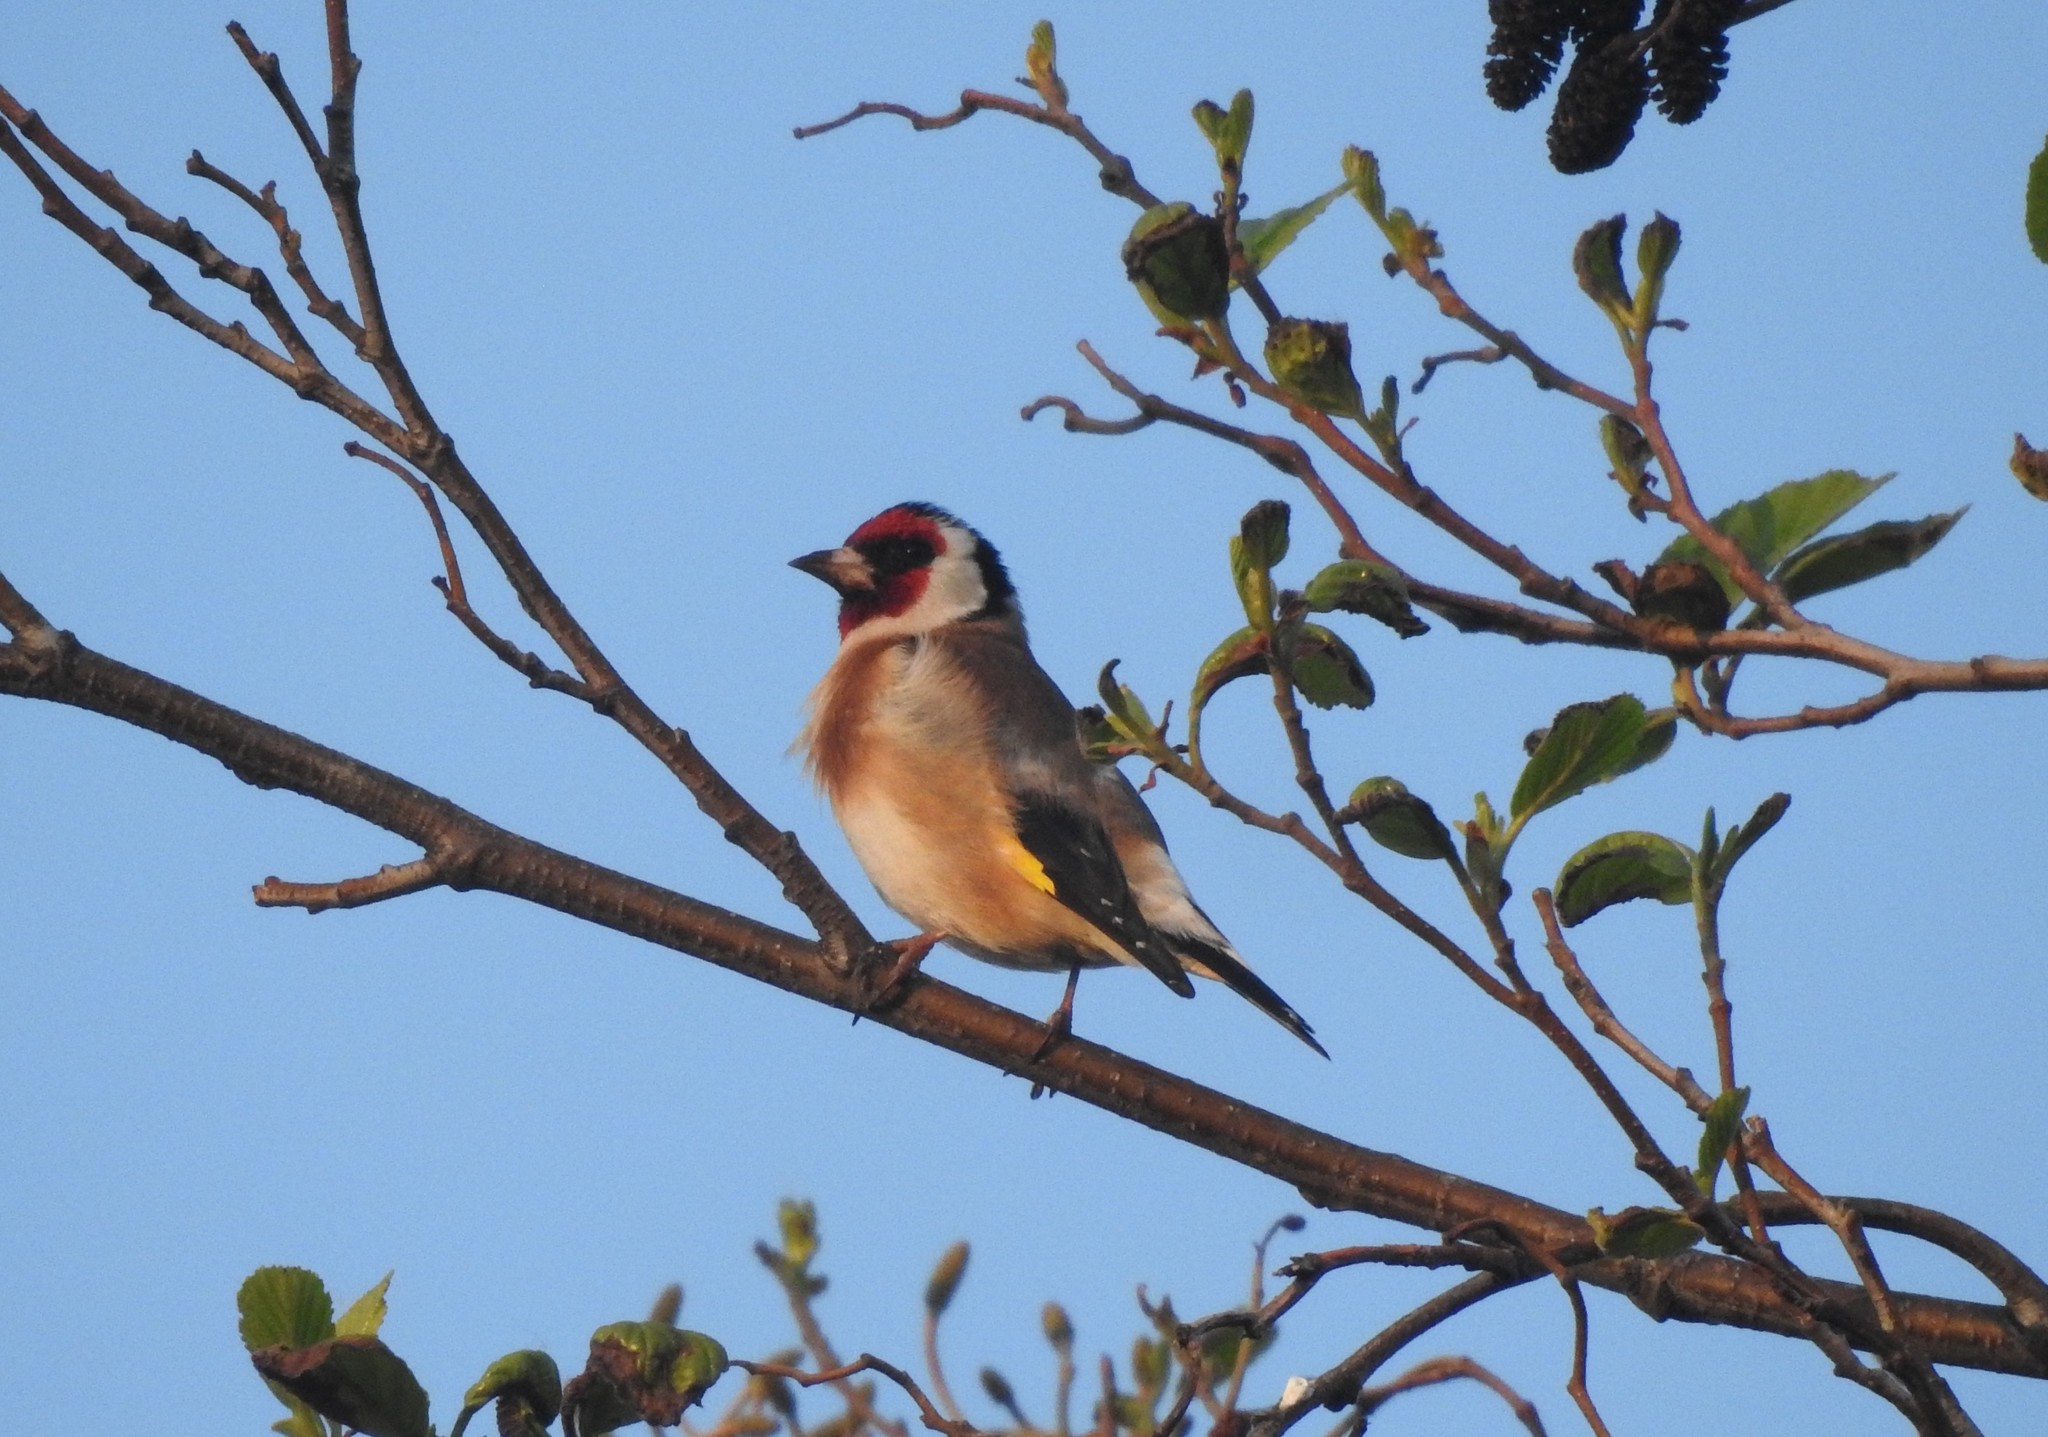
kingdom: Animalia
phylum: Chordata
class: Aves
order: Passeriformes
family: Fringillidae
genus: Carduelis
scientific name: Carduelis carduelis
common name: European goldfinch
